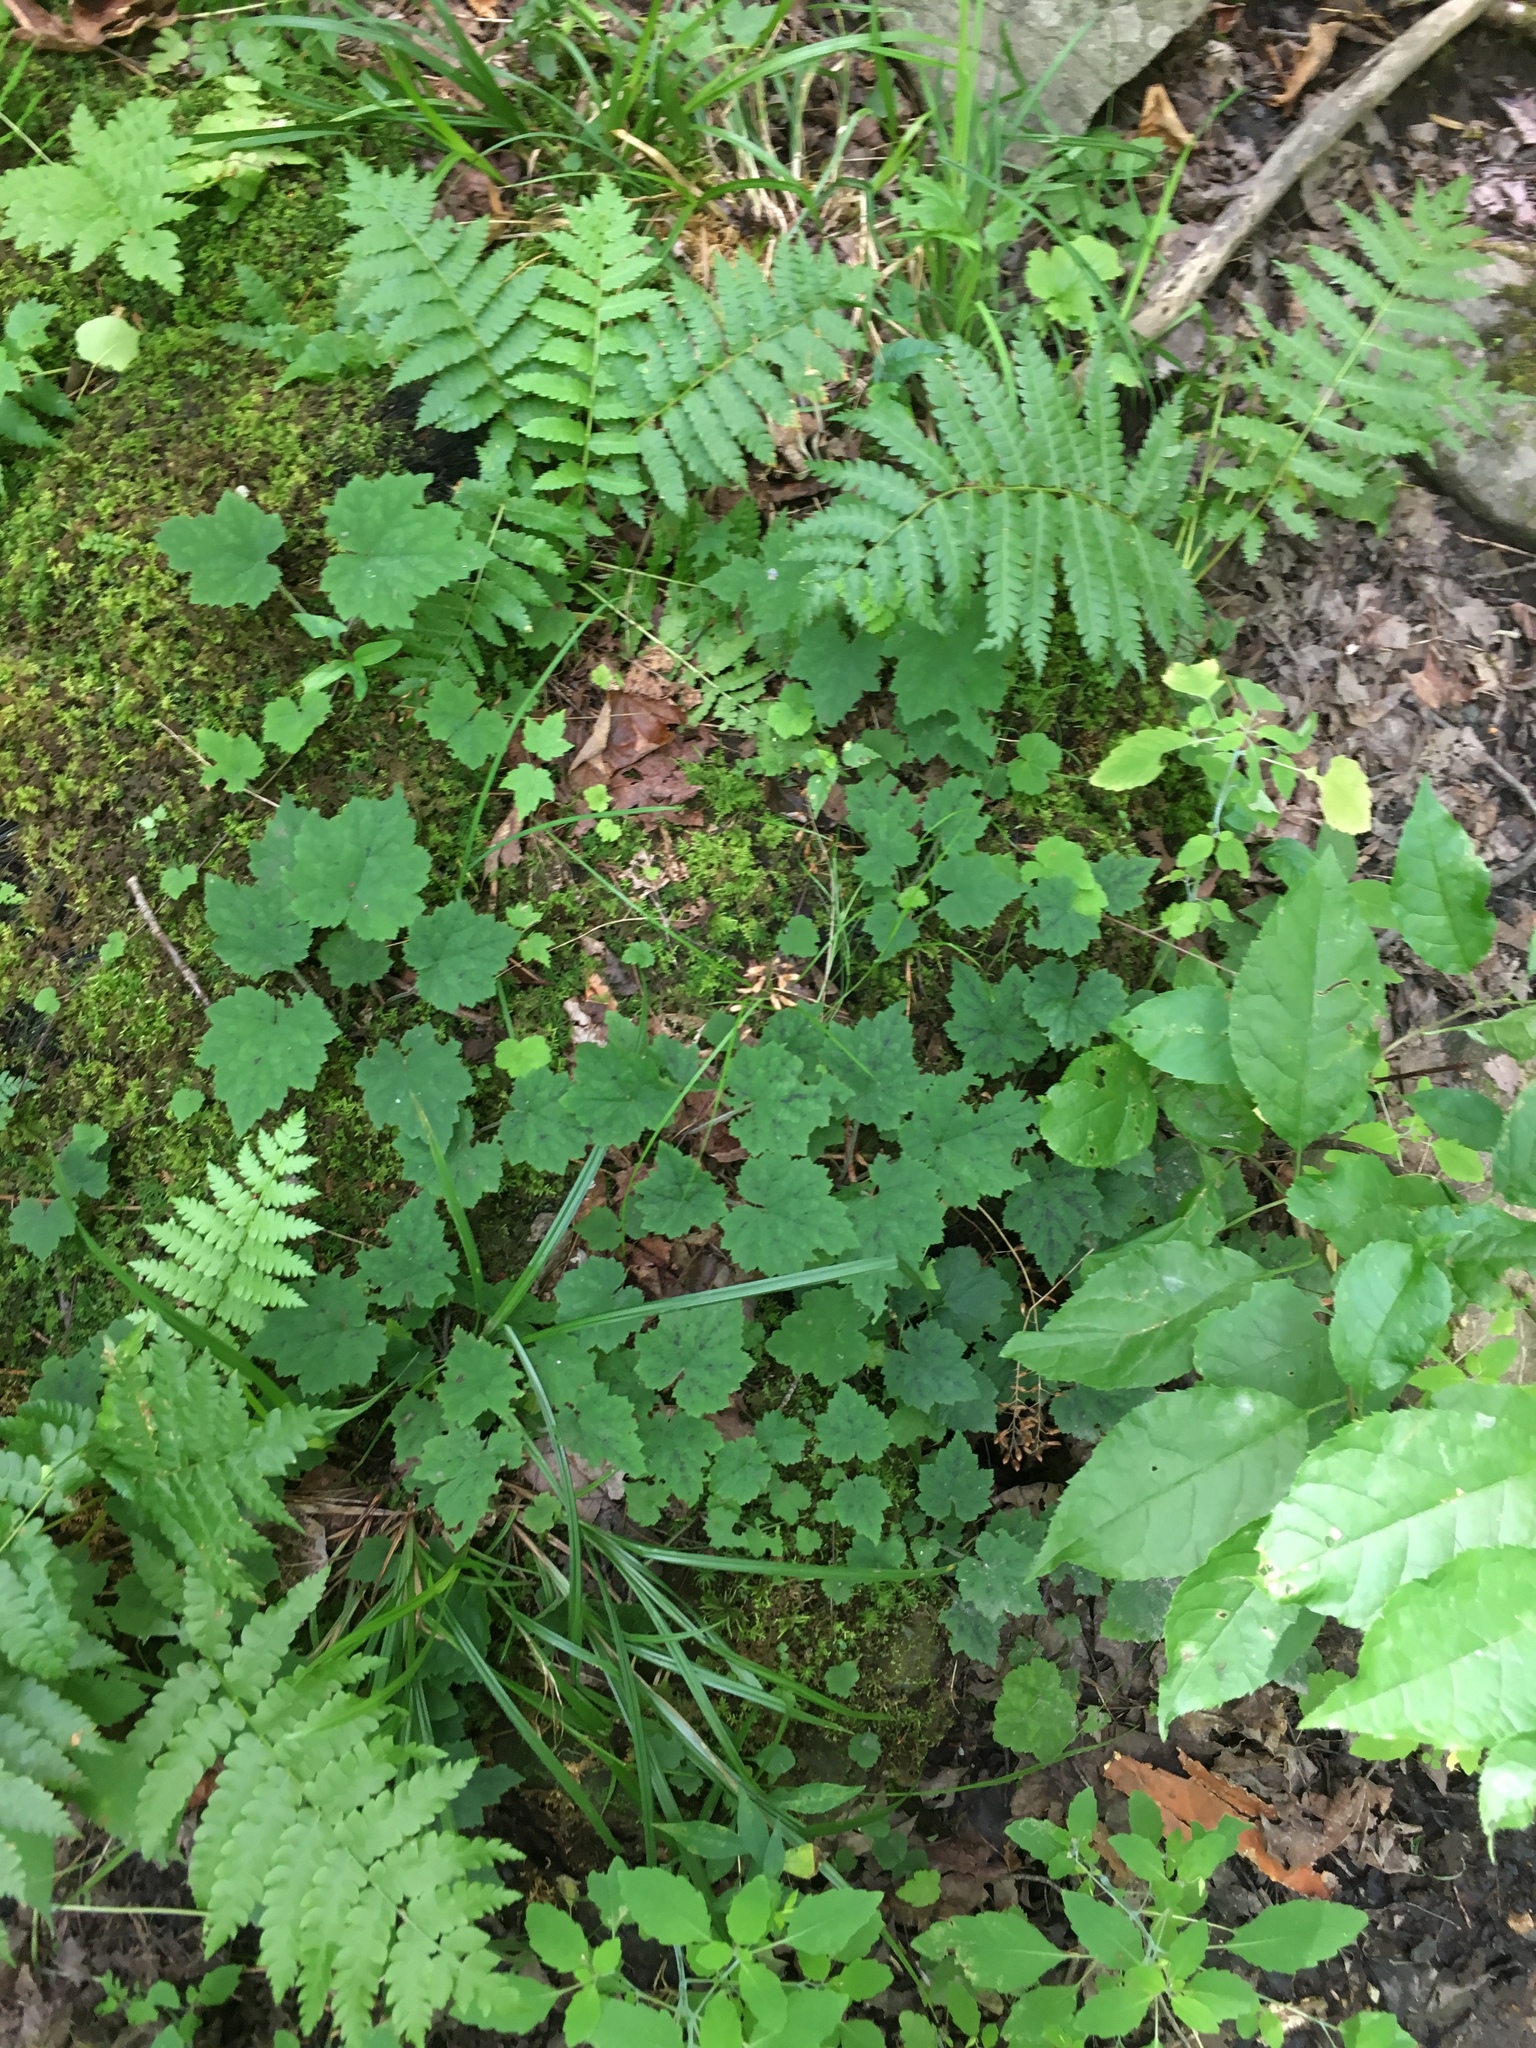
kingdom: Plantae
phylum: Tracheophyta
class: Magnoliopsida
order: Saxifragales
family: Saxifragaceae
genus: Tiarella
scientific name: Tiarella stolonifera
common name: Stoloniferous foamflower
